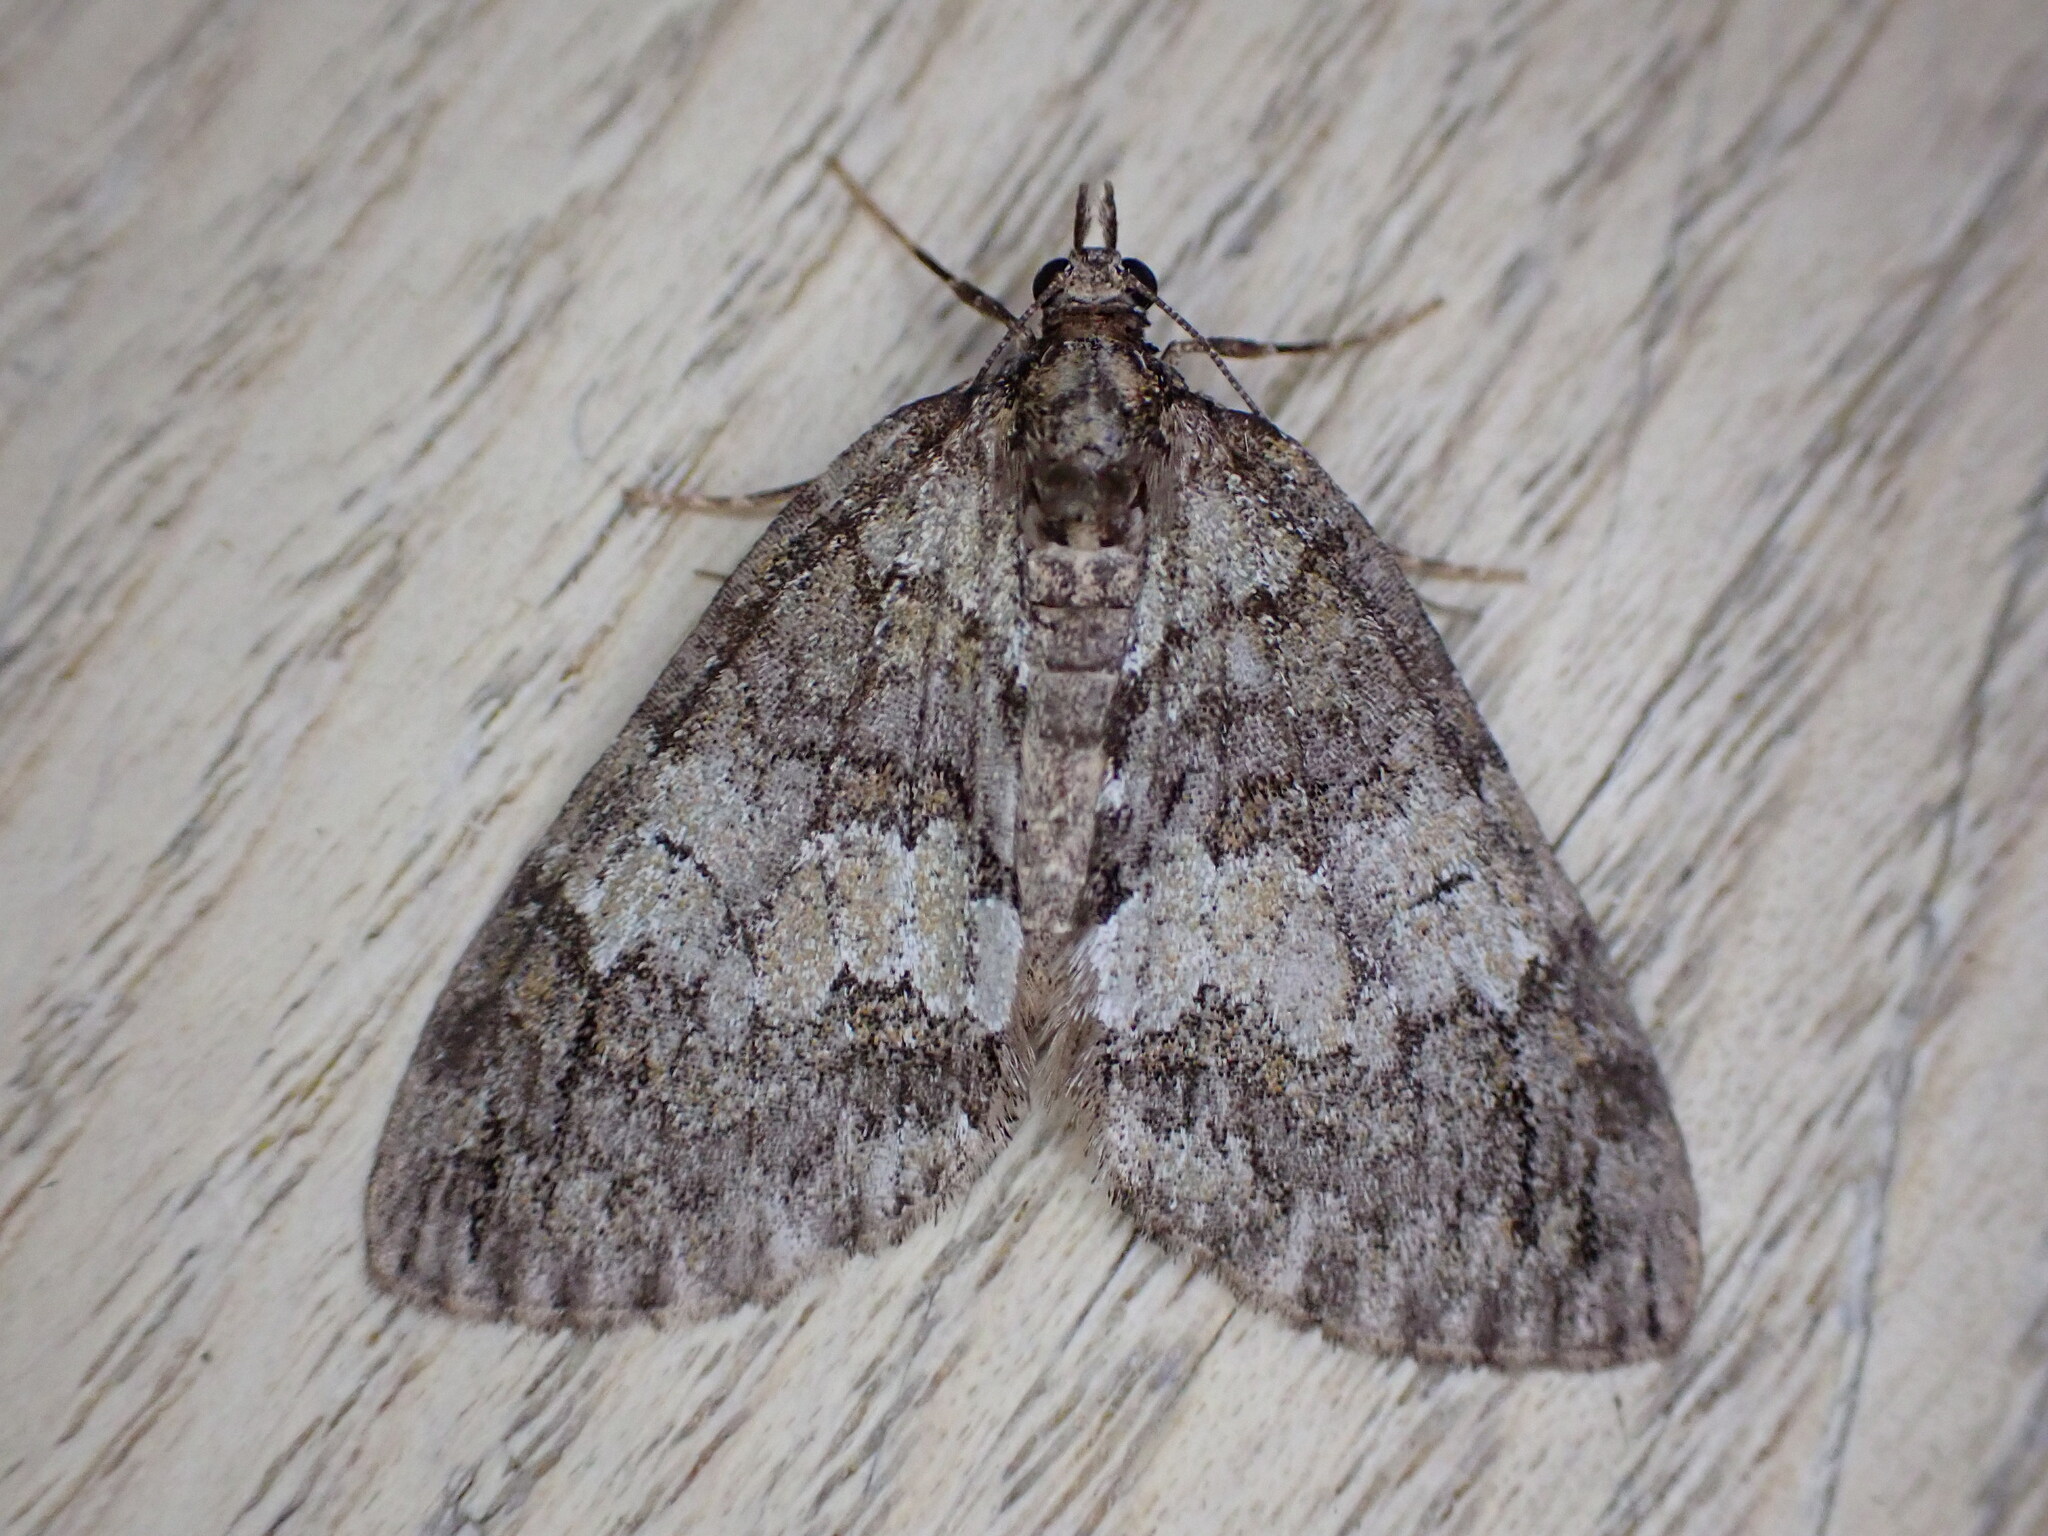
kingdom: Animalia
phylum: Arthropoda
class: Insecta
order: Lepidoptera
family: Geometridae
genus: Hydriomena
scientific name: Hydriomena impluviata
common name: May highflyer
